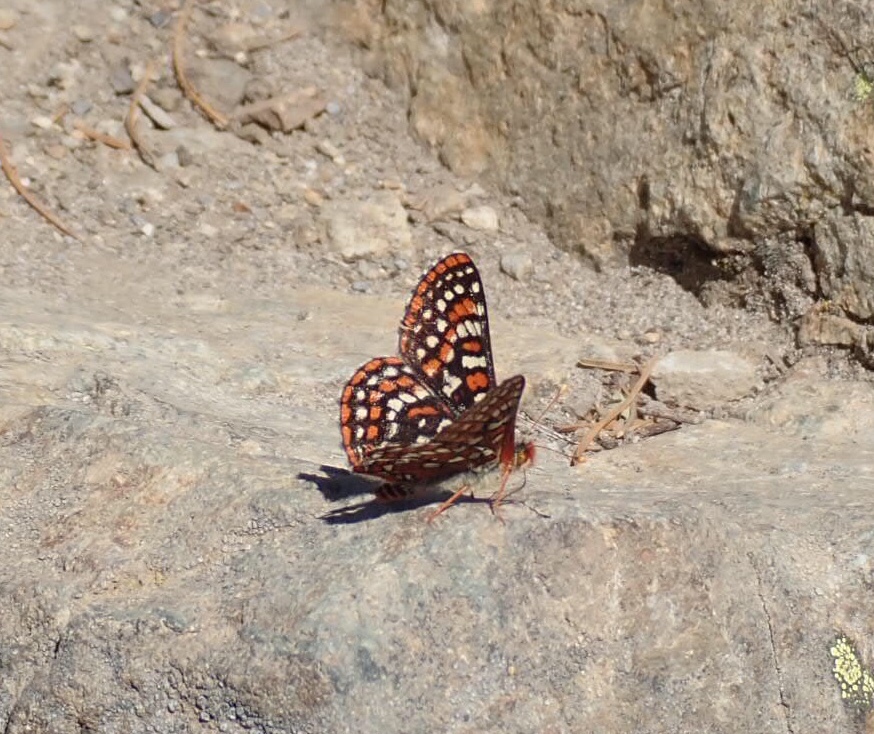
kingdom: Animalia
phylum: Arthropoda
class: Insecta
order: Lepidoptera
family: Nymphalidae
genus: Occidryas
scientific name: Occidryas editha
